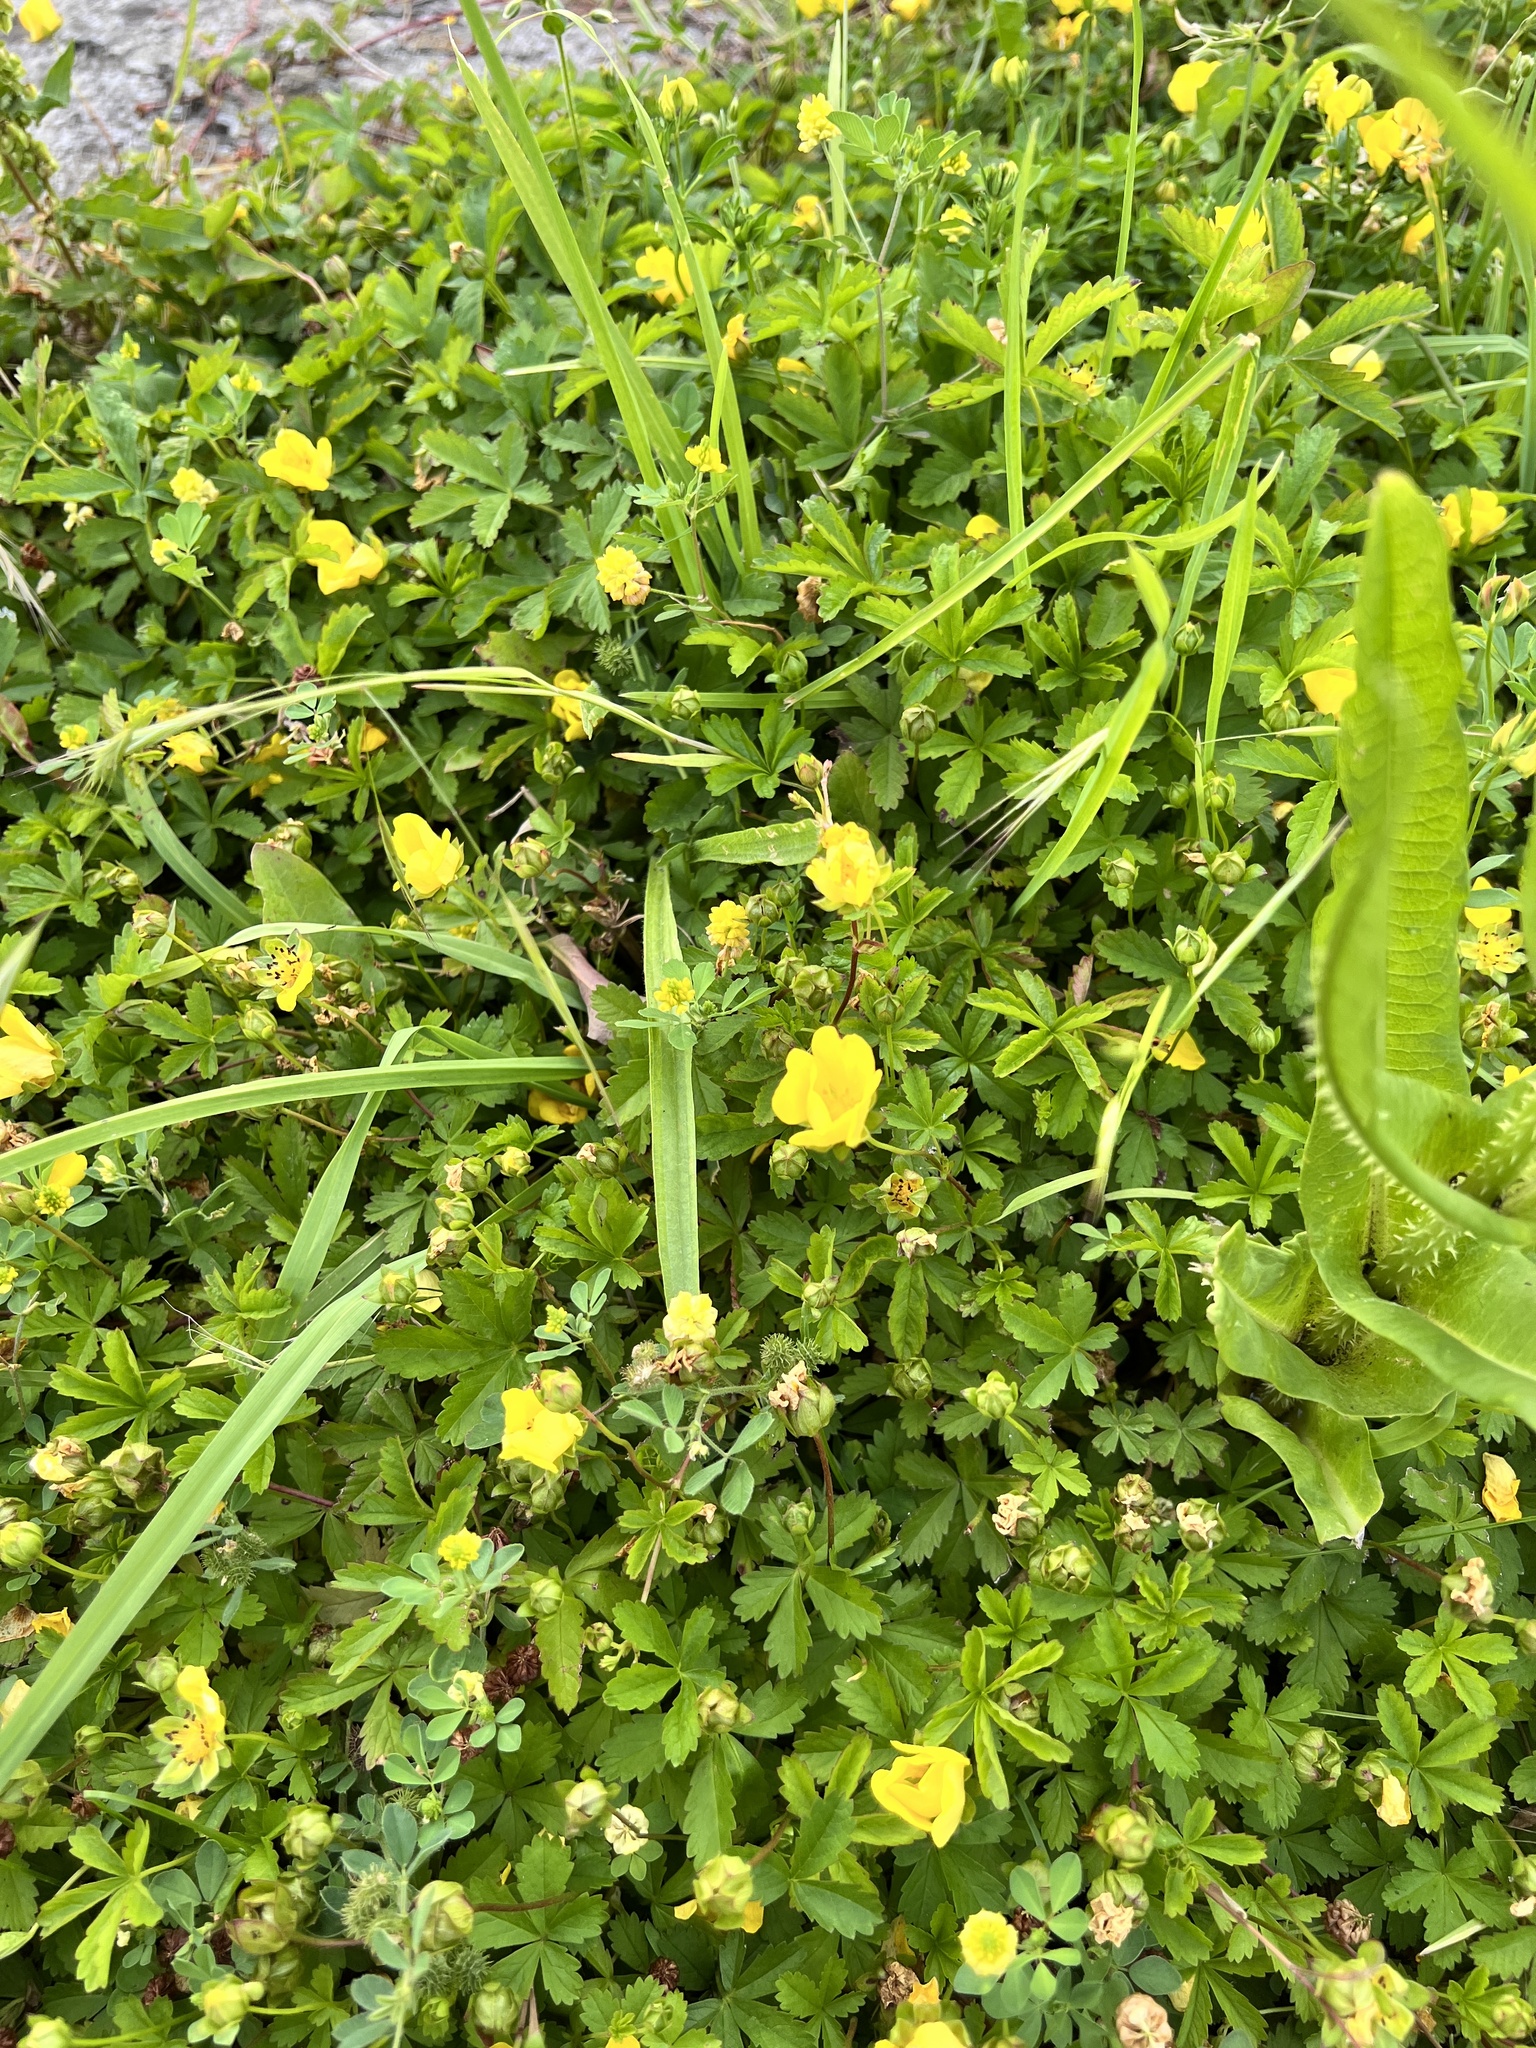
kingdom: Plantae
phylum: Tracheophyta
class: Magnoliopsida
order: Rosales
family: Rosaceae
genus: Potentilla
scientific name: Potentilla reptans
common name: Creeping cinquefoil
